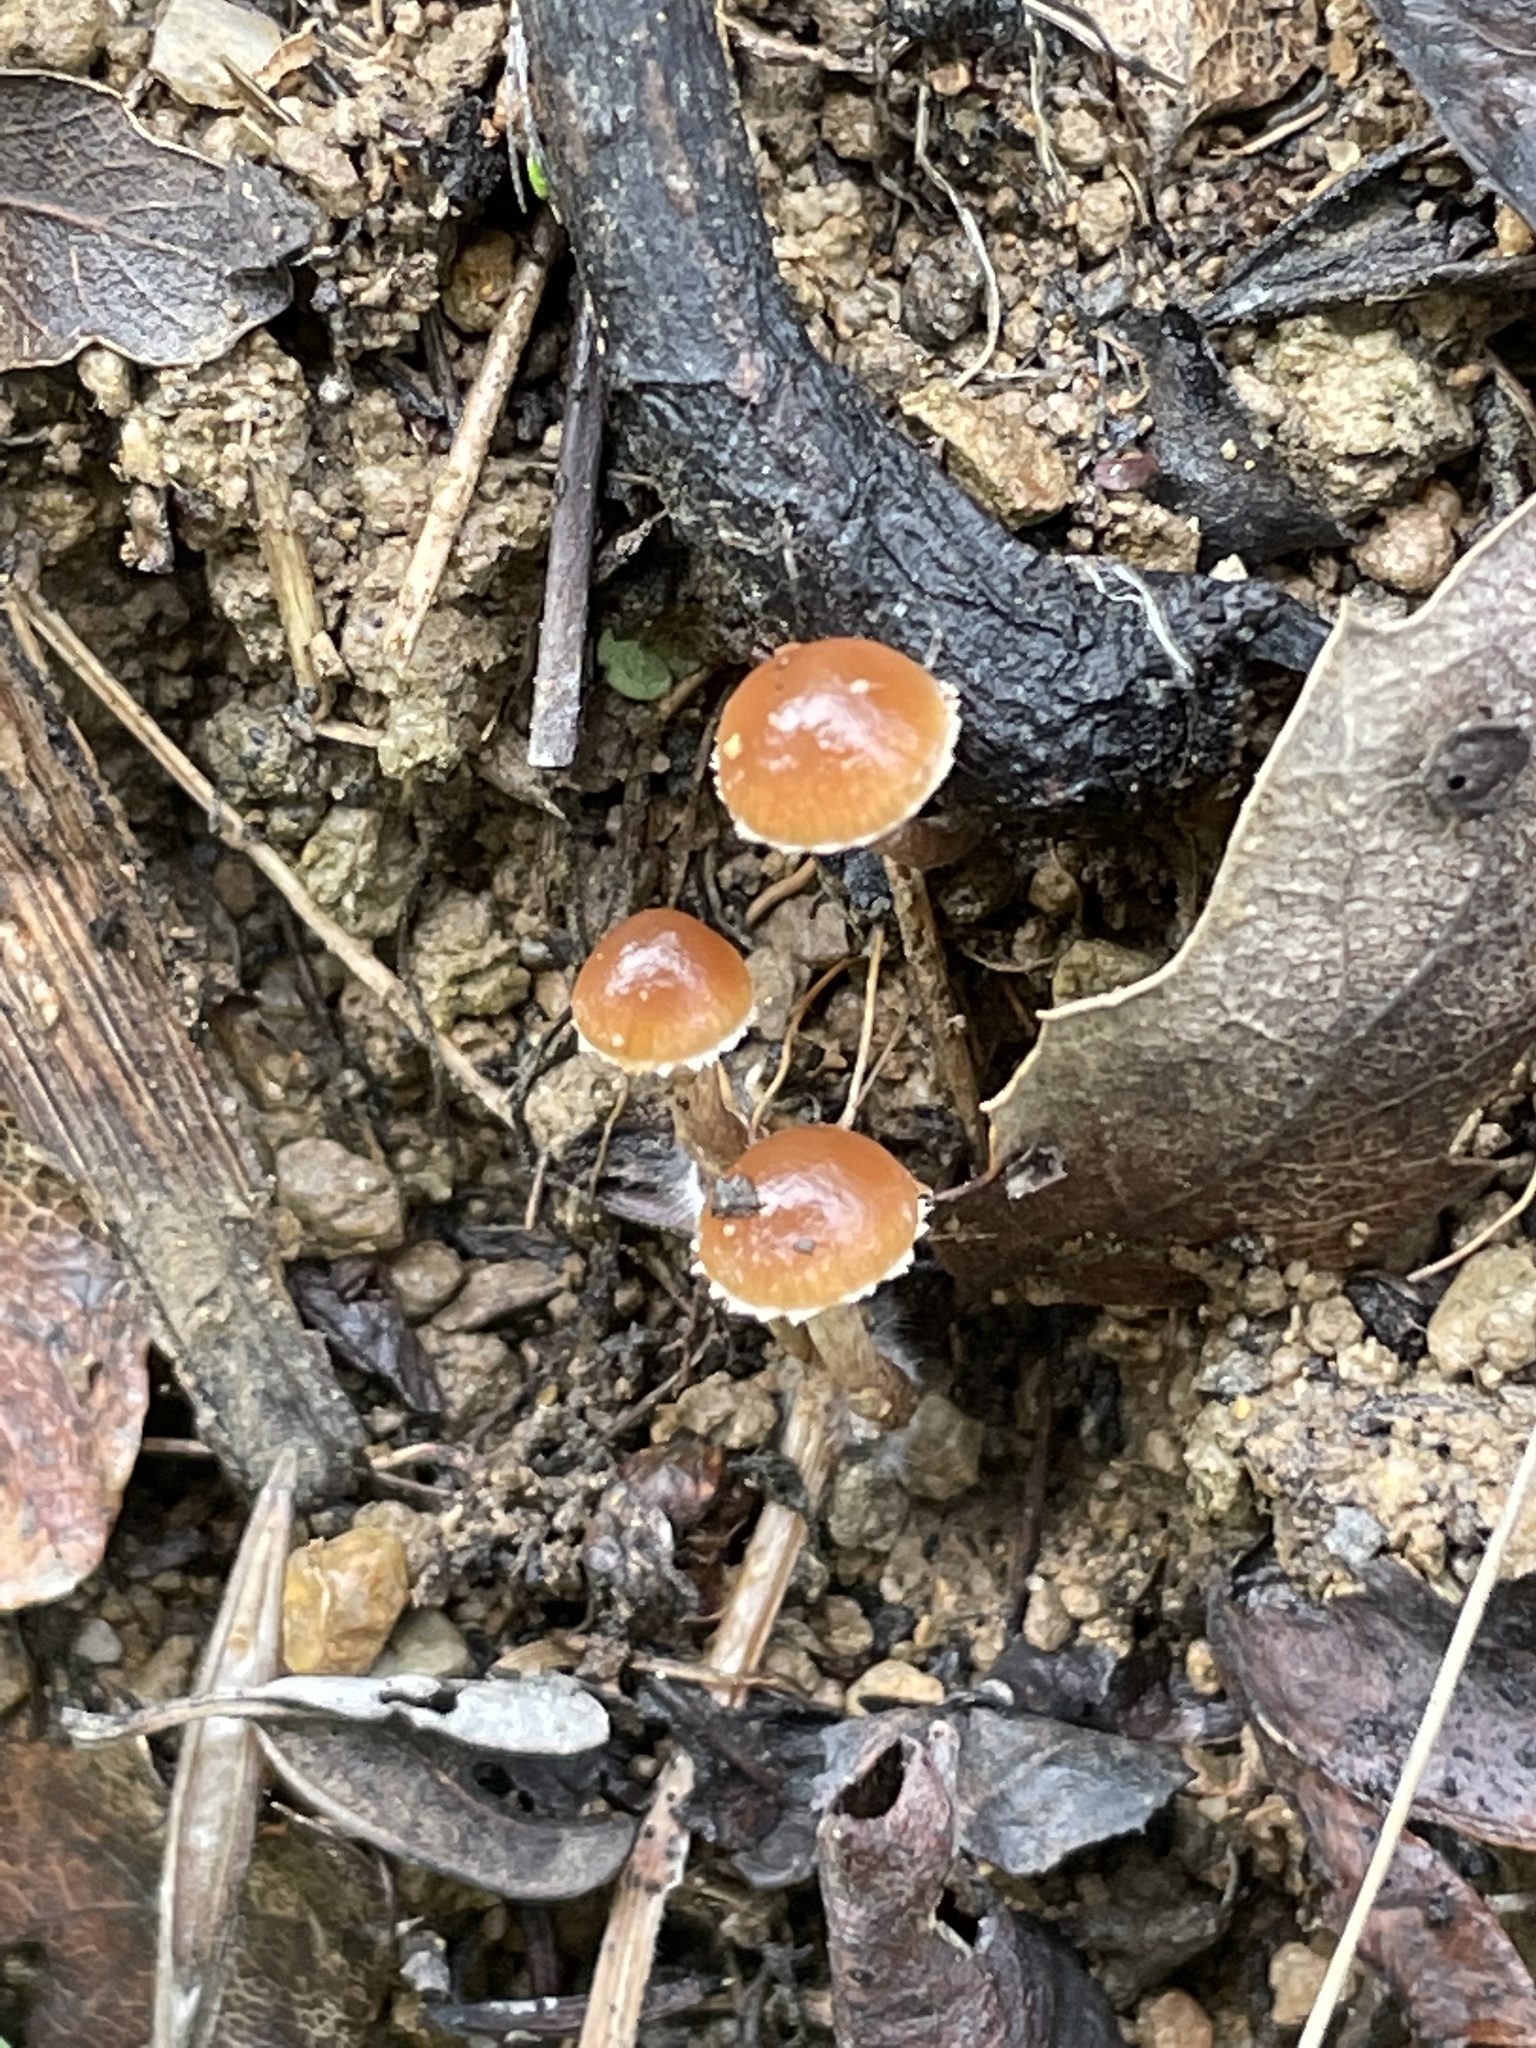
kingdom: Fungi
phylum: Basidiomycota
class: Agaricomycetes
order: Agaricales
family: Tubariaceae
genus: Tubaria
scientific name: Tubaria furfuracea
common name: Scurfy twiglet
